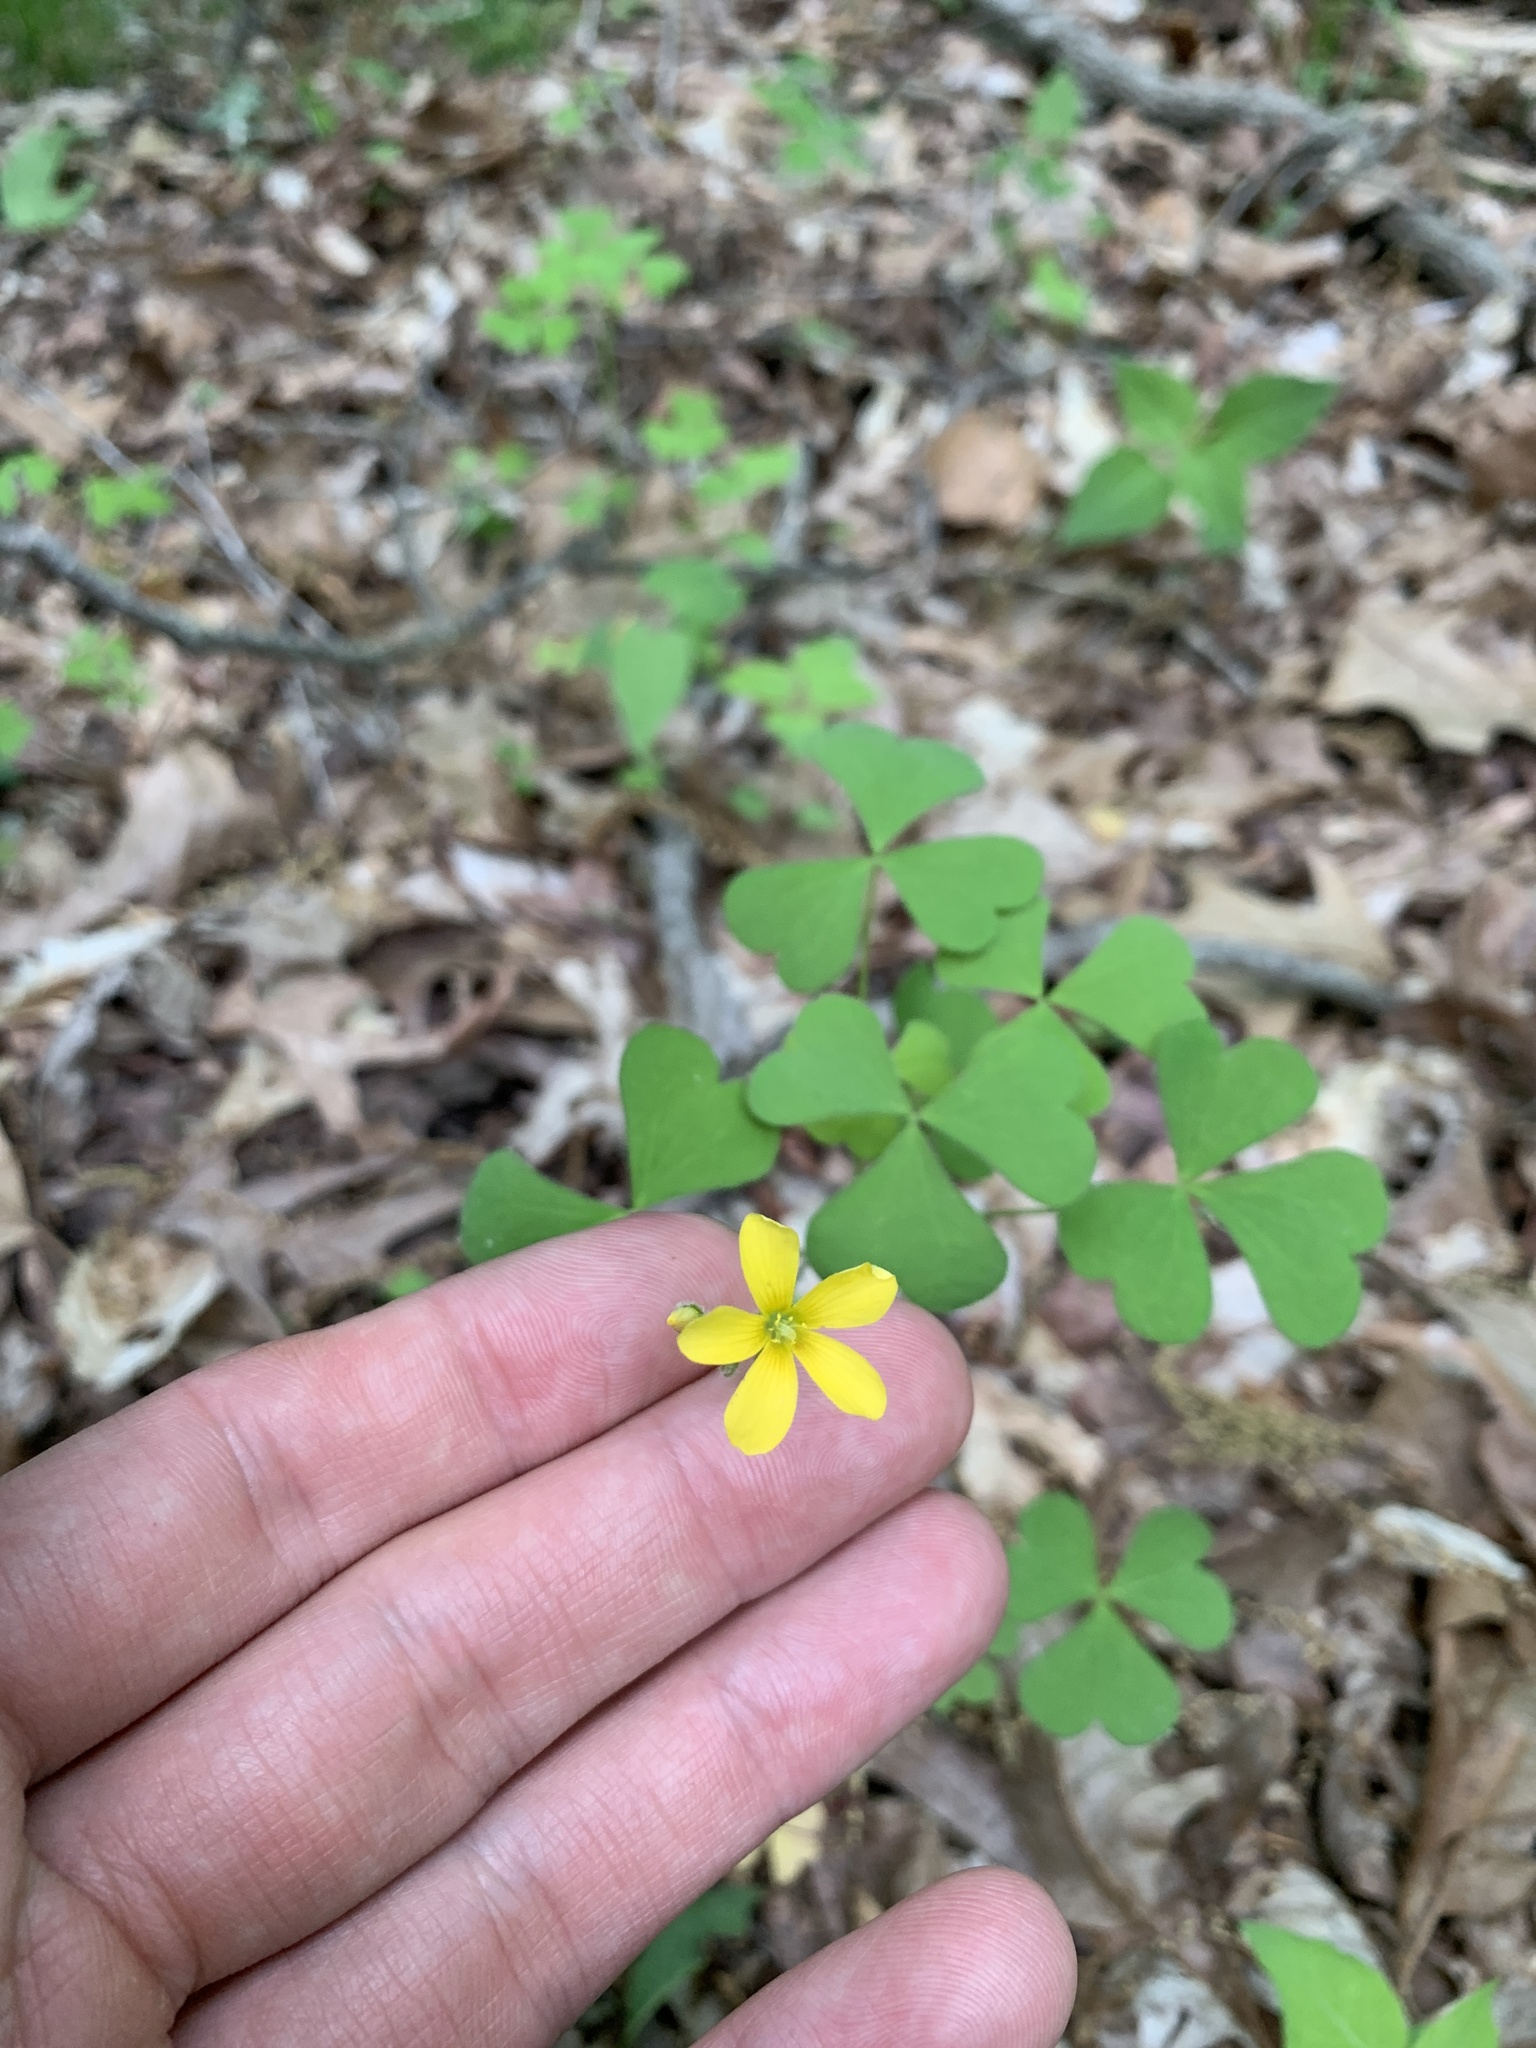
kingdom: Plantae
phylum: Tracheophyta
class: Magnoliopsida
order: Oxalidales
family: Oxalidaceae
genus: Oxalis
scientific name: Oxalis grandis
